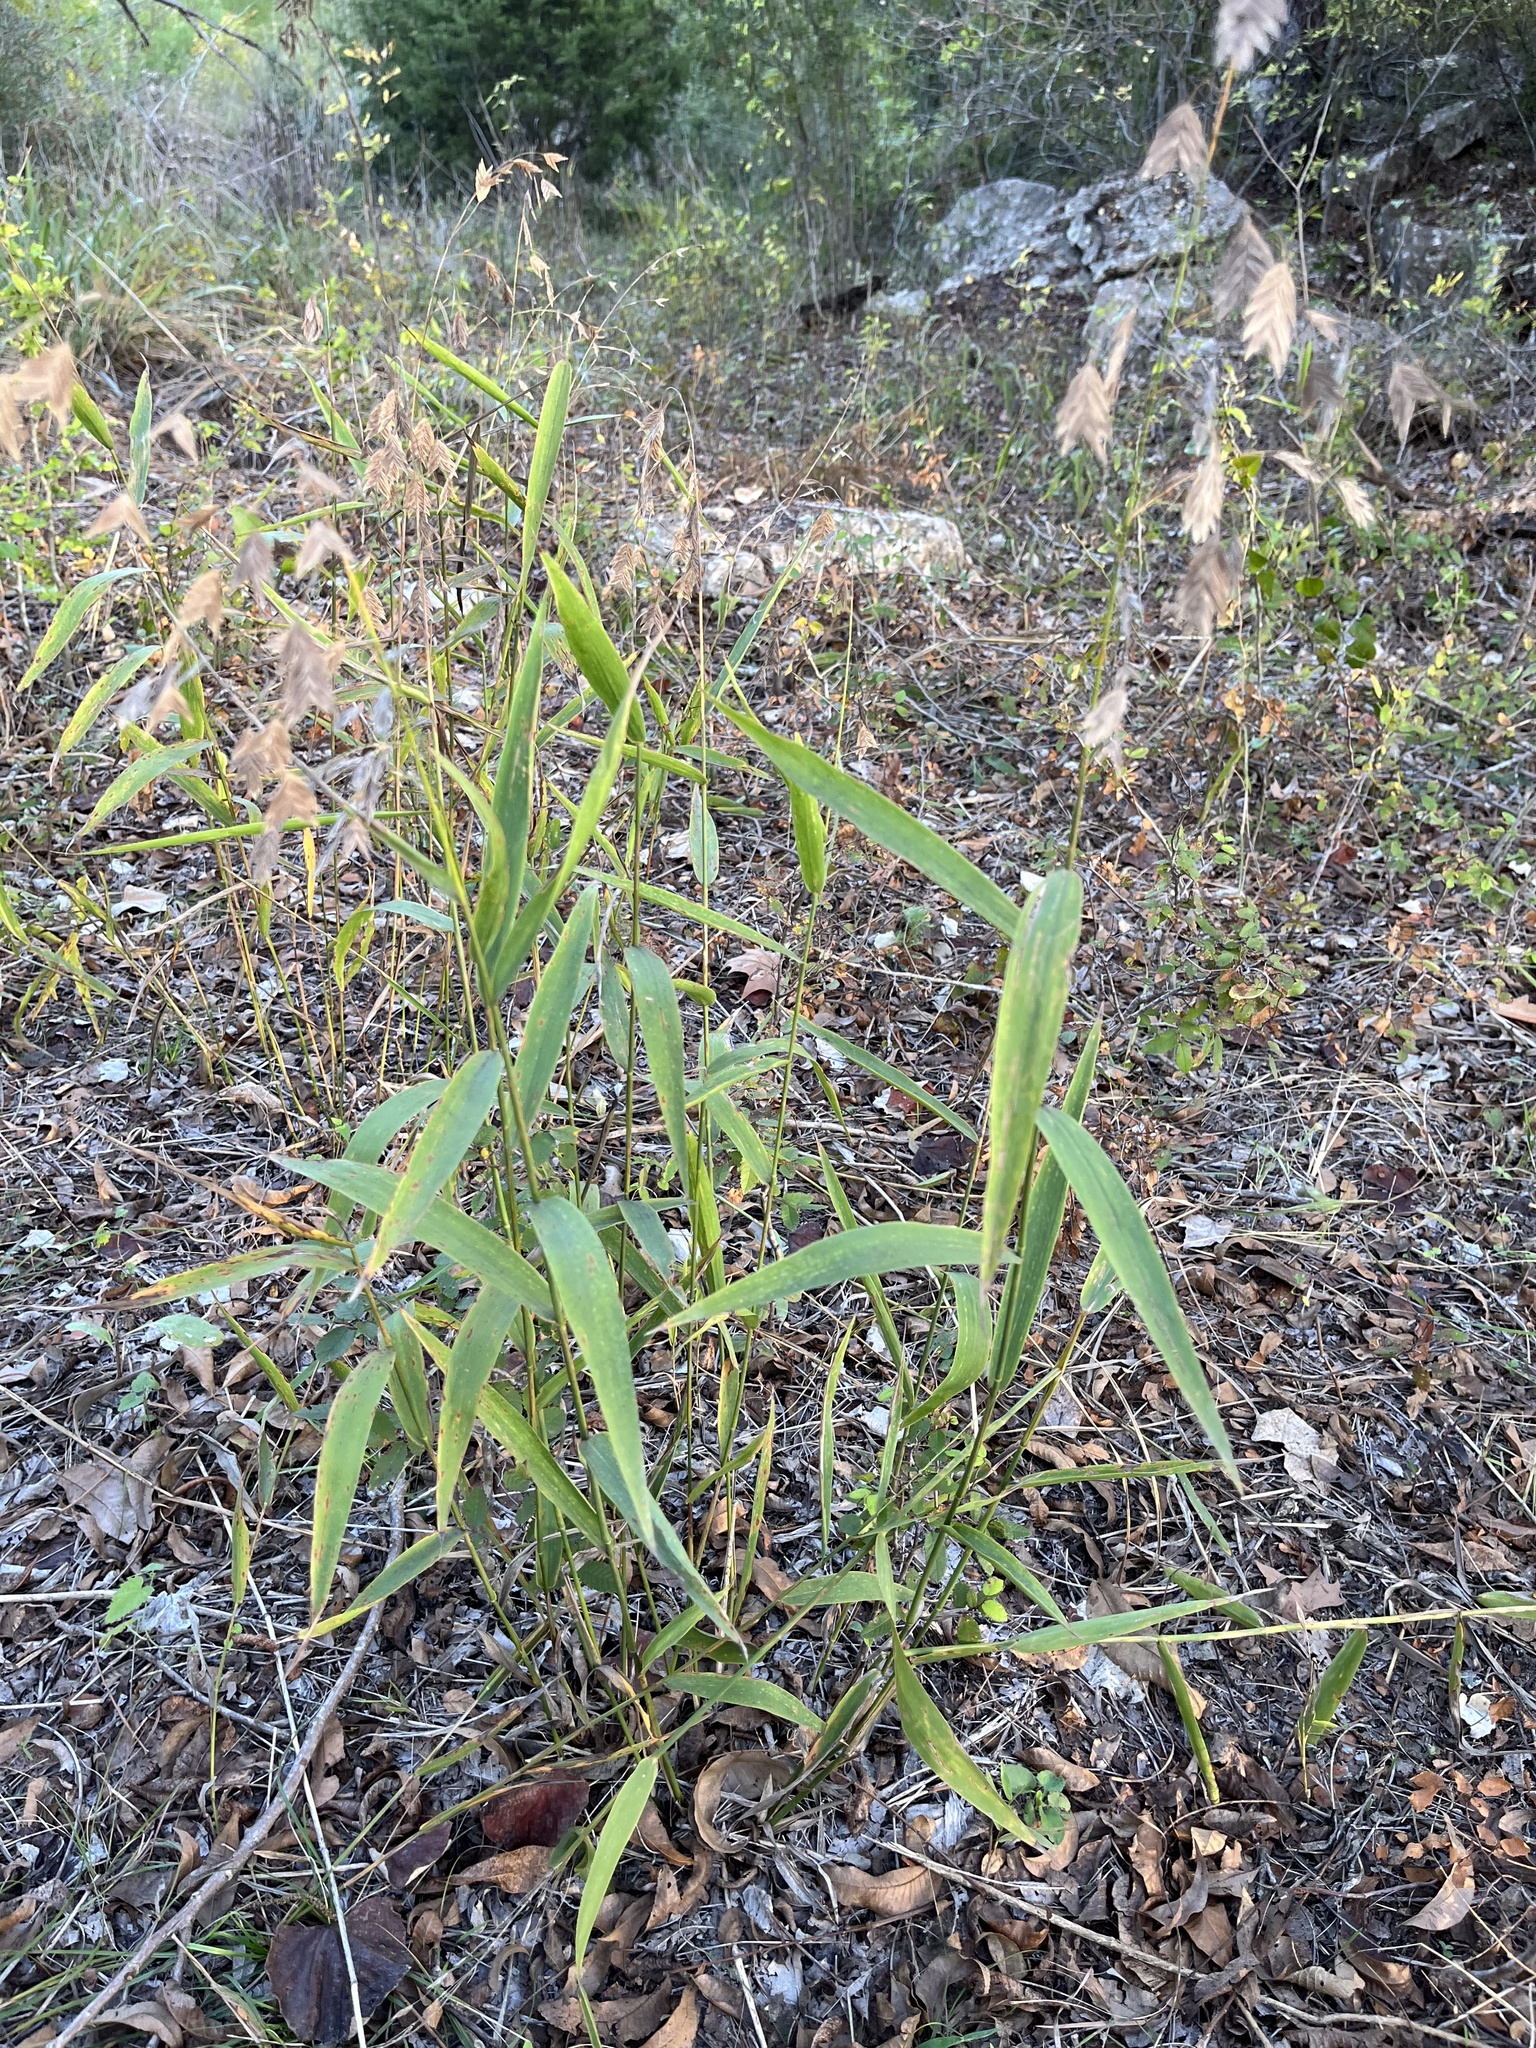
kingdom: Plantae
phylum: Tracheophyta
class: Liliopsida
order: Poales
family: Poaceae
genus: Chasmanthium
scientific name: Chasmanthium latifolium
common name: Broad-leaved chasmanthium
